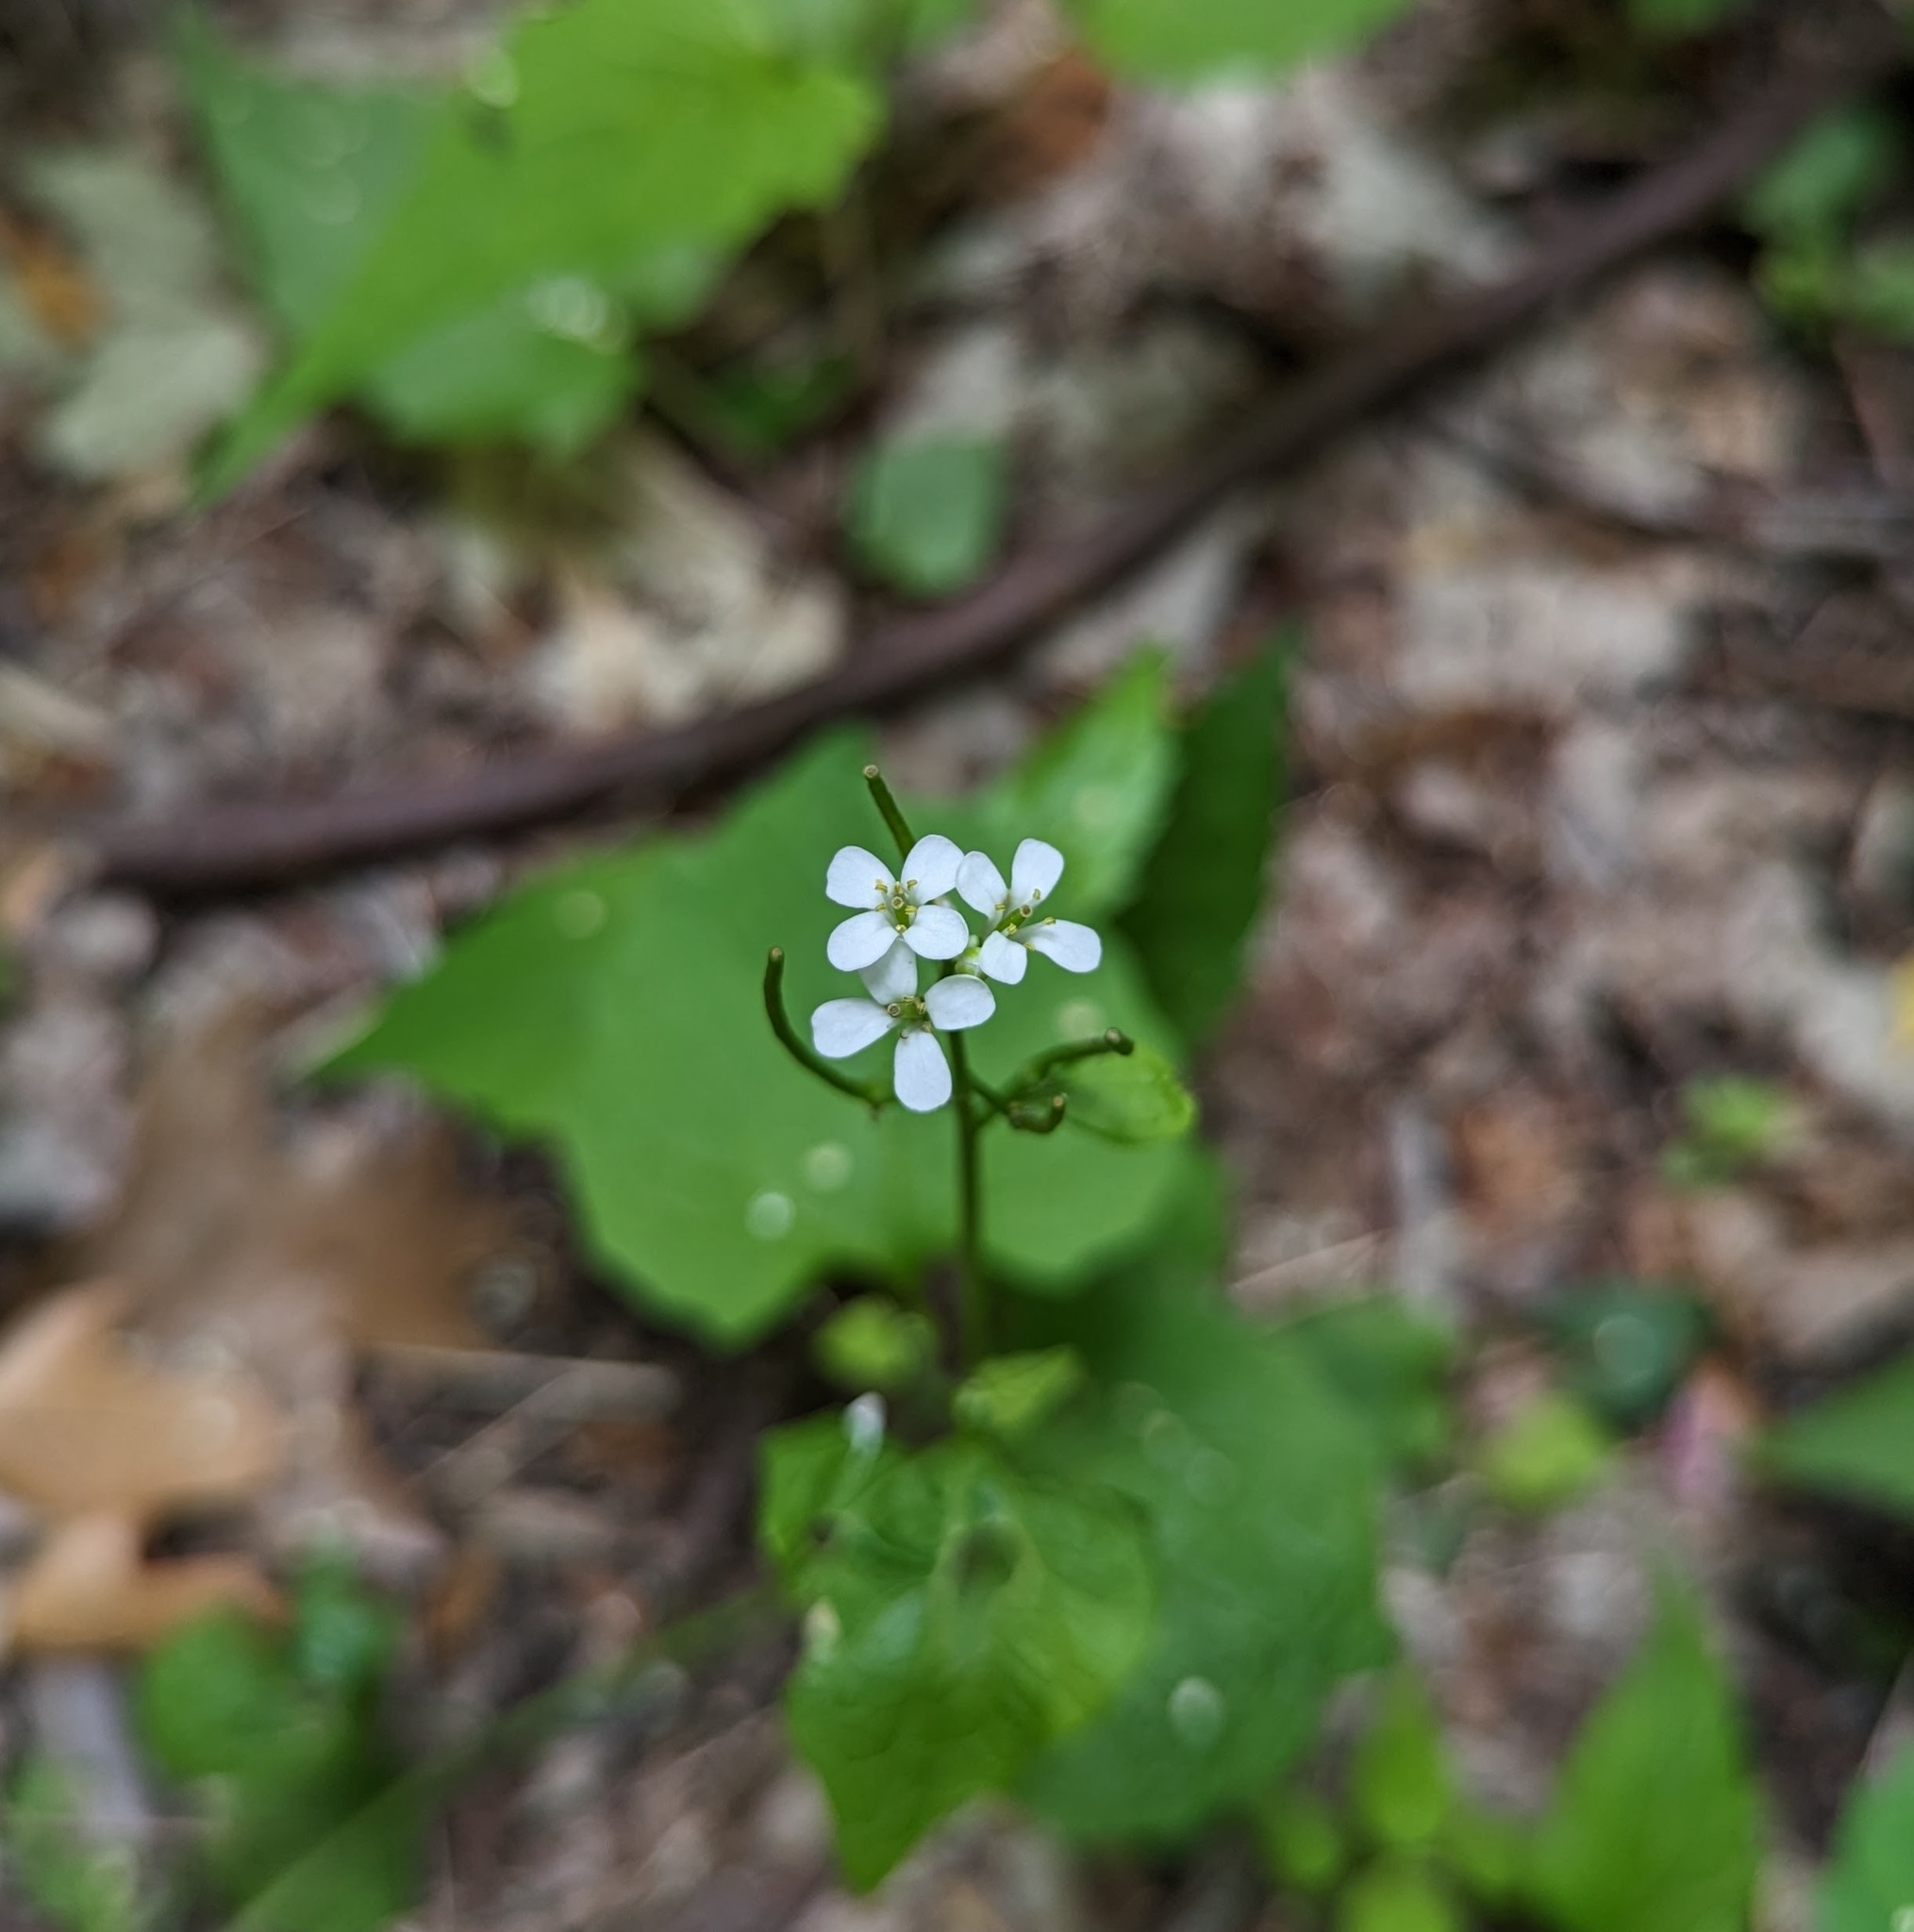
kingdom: Plantae
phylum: Tracheophyta
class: Magnoliopsida
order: Brassicales
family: Brassicaceae
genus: Alliaria
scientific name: Alliaria petiolata
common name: Garlic mustard
